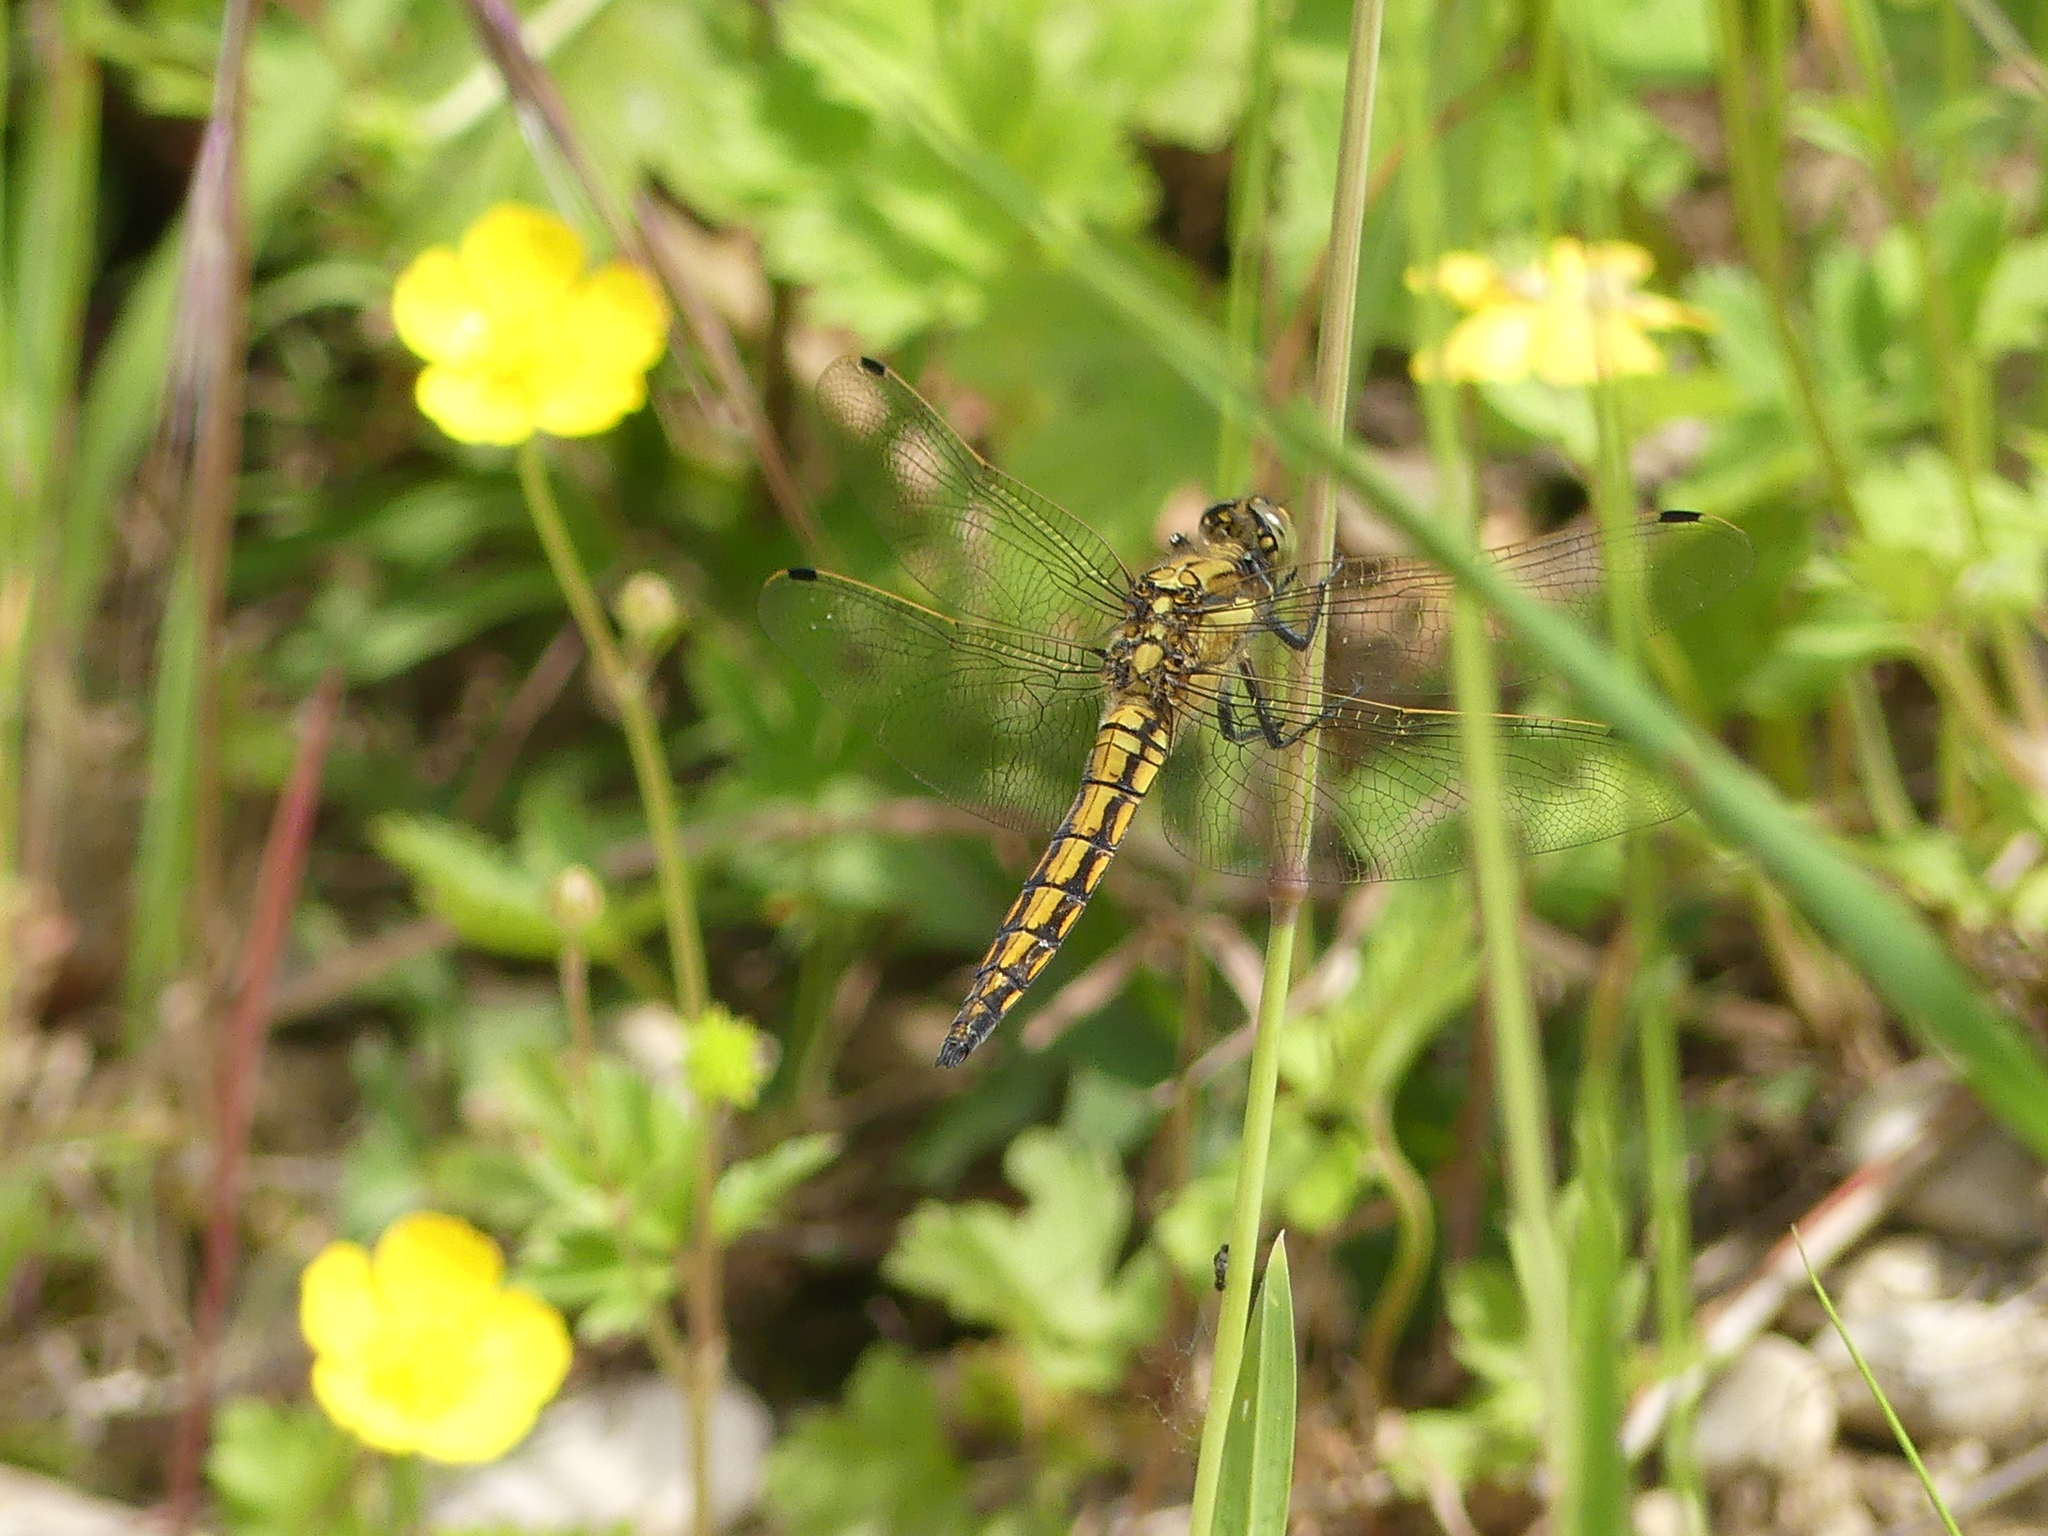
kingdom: Animalia
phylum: Arthropoda
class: Insecta
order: Odonata
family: Libellulidae
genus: Orthetrum
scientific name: Orthetrum cancellatum
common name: Black-tailed skimmer
